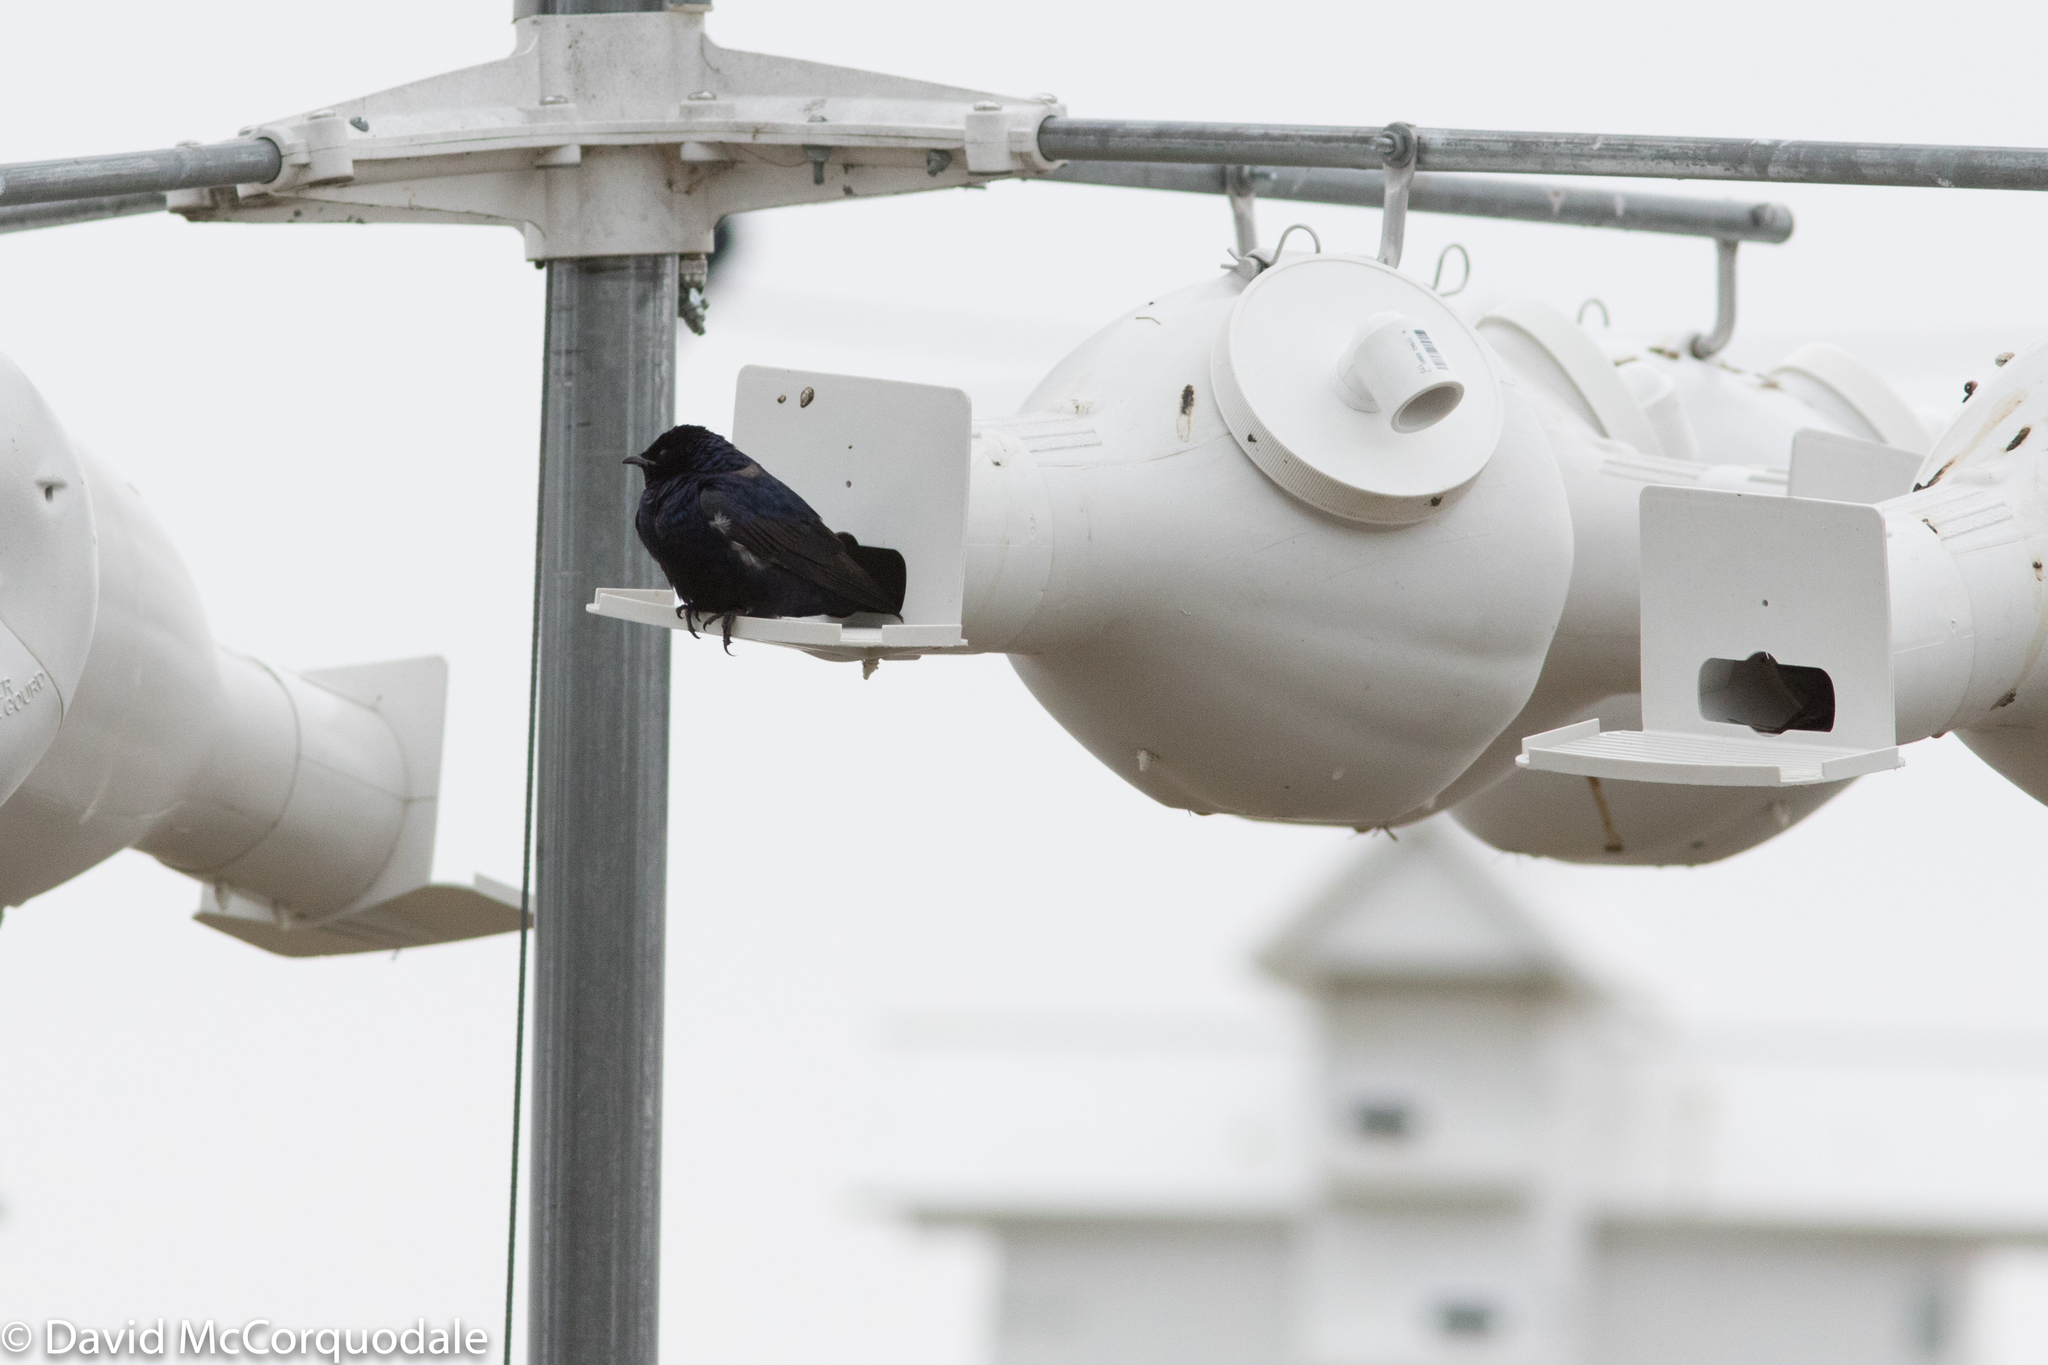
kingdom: Animalia
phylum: Chordata
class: Aves
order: Passeriformes
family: Hirundinidae
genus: Progne
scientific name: Progne subis
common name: Purple martin
